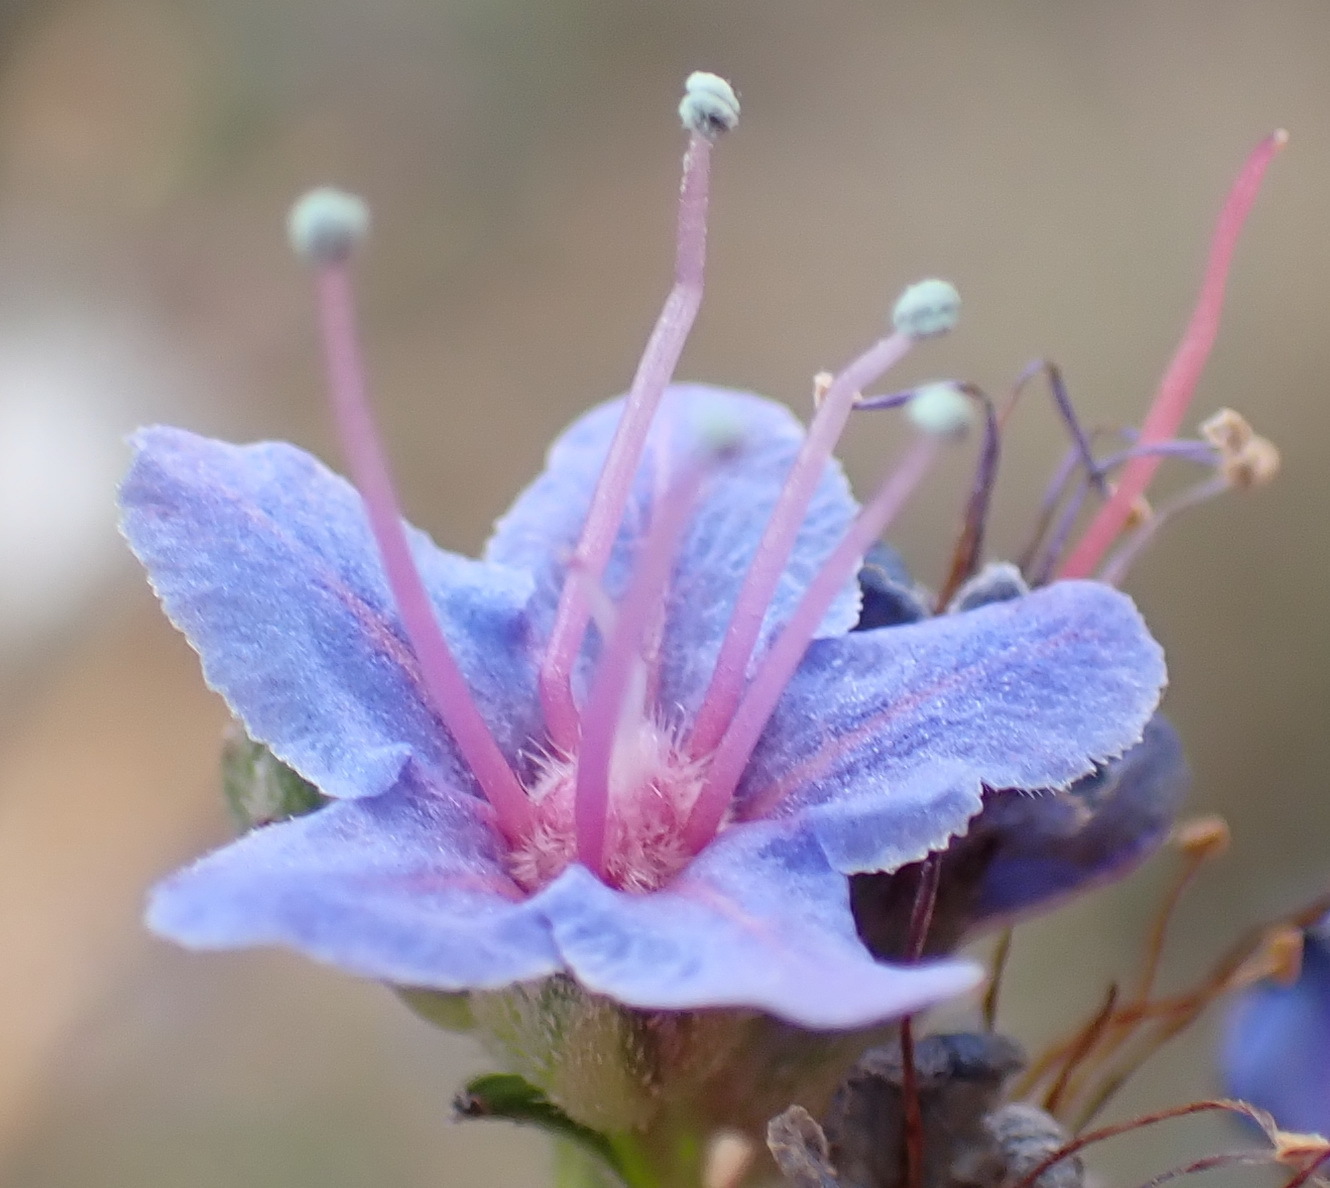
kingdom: Plantae
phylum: Tracheophyta
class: Magnoliopsida
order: Boraginales
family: Boraginaceae
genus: Lobostemon
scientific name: Lobostemon echioides
